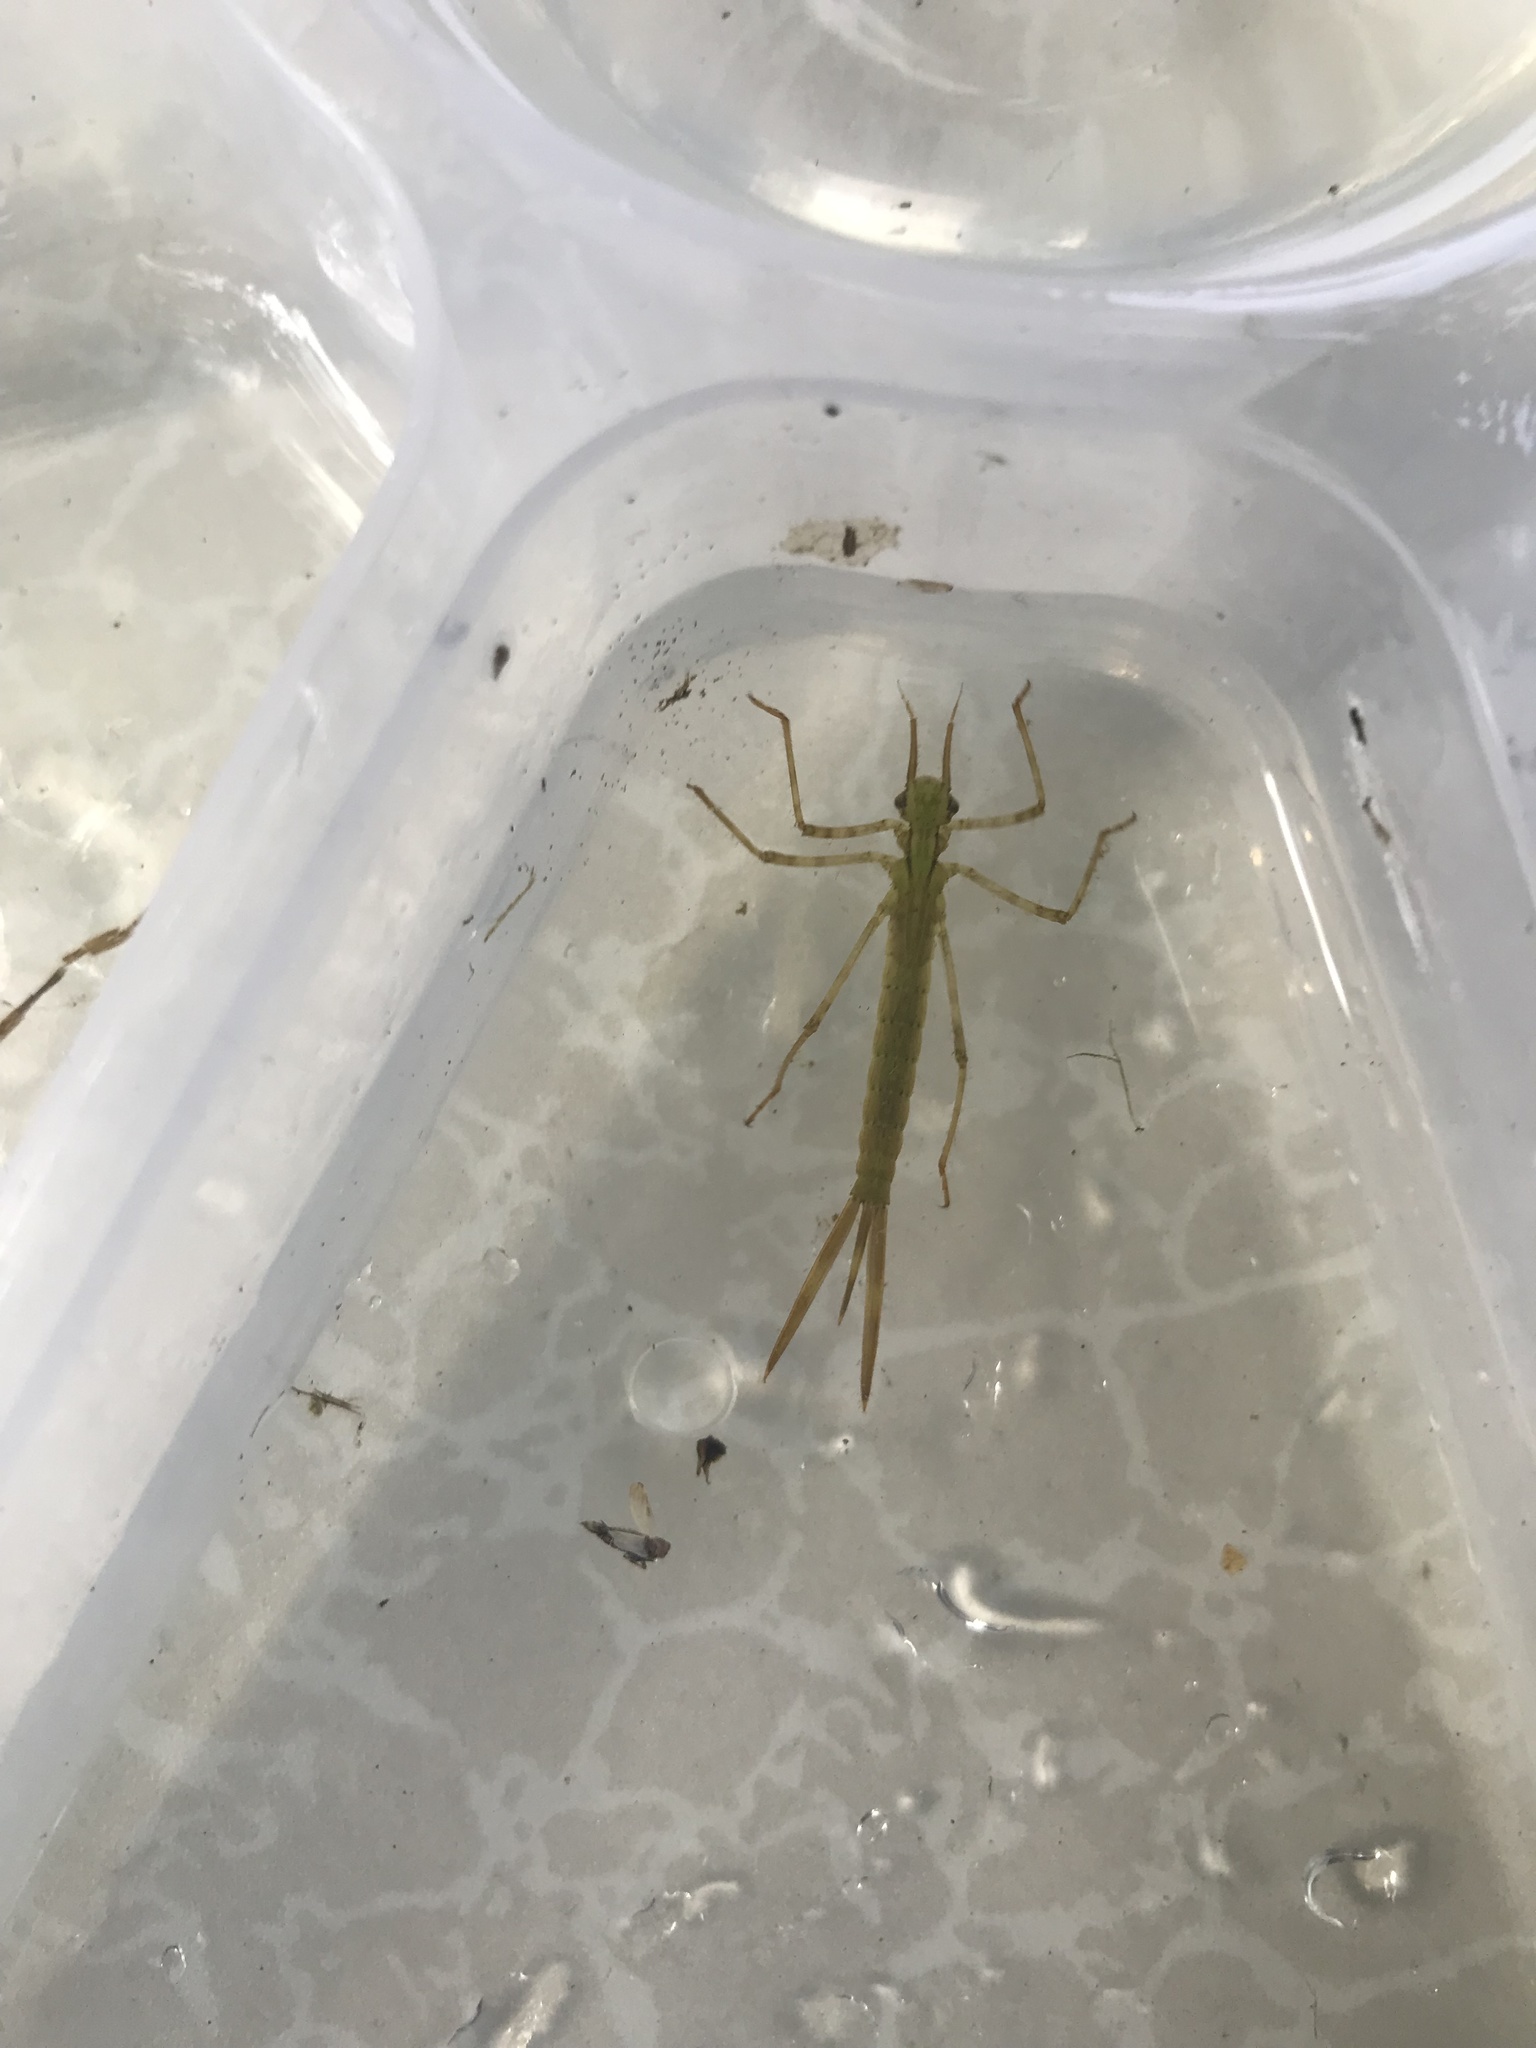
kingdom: Animalia
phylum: Arthropoda
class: Insecta
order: Odonata
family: Calopterygidae
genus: Calopteryx
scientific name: Calopteryx splendens
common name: Banded demoiselle
